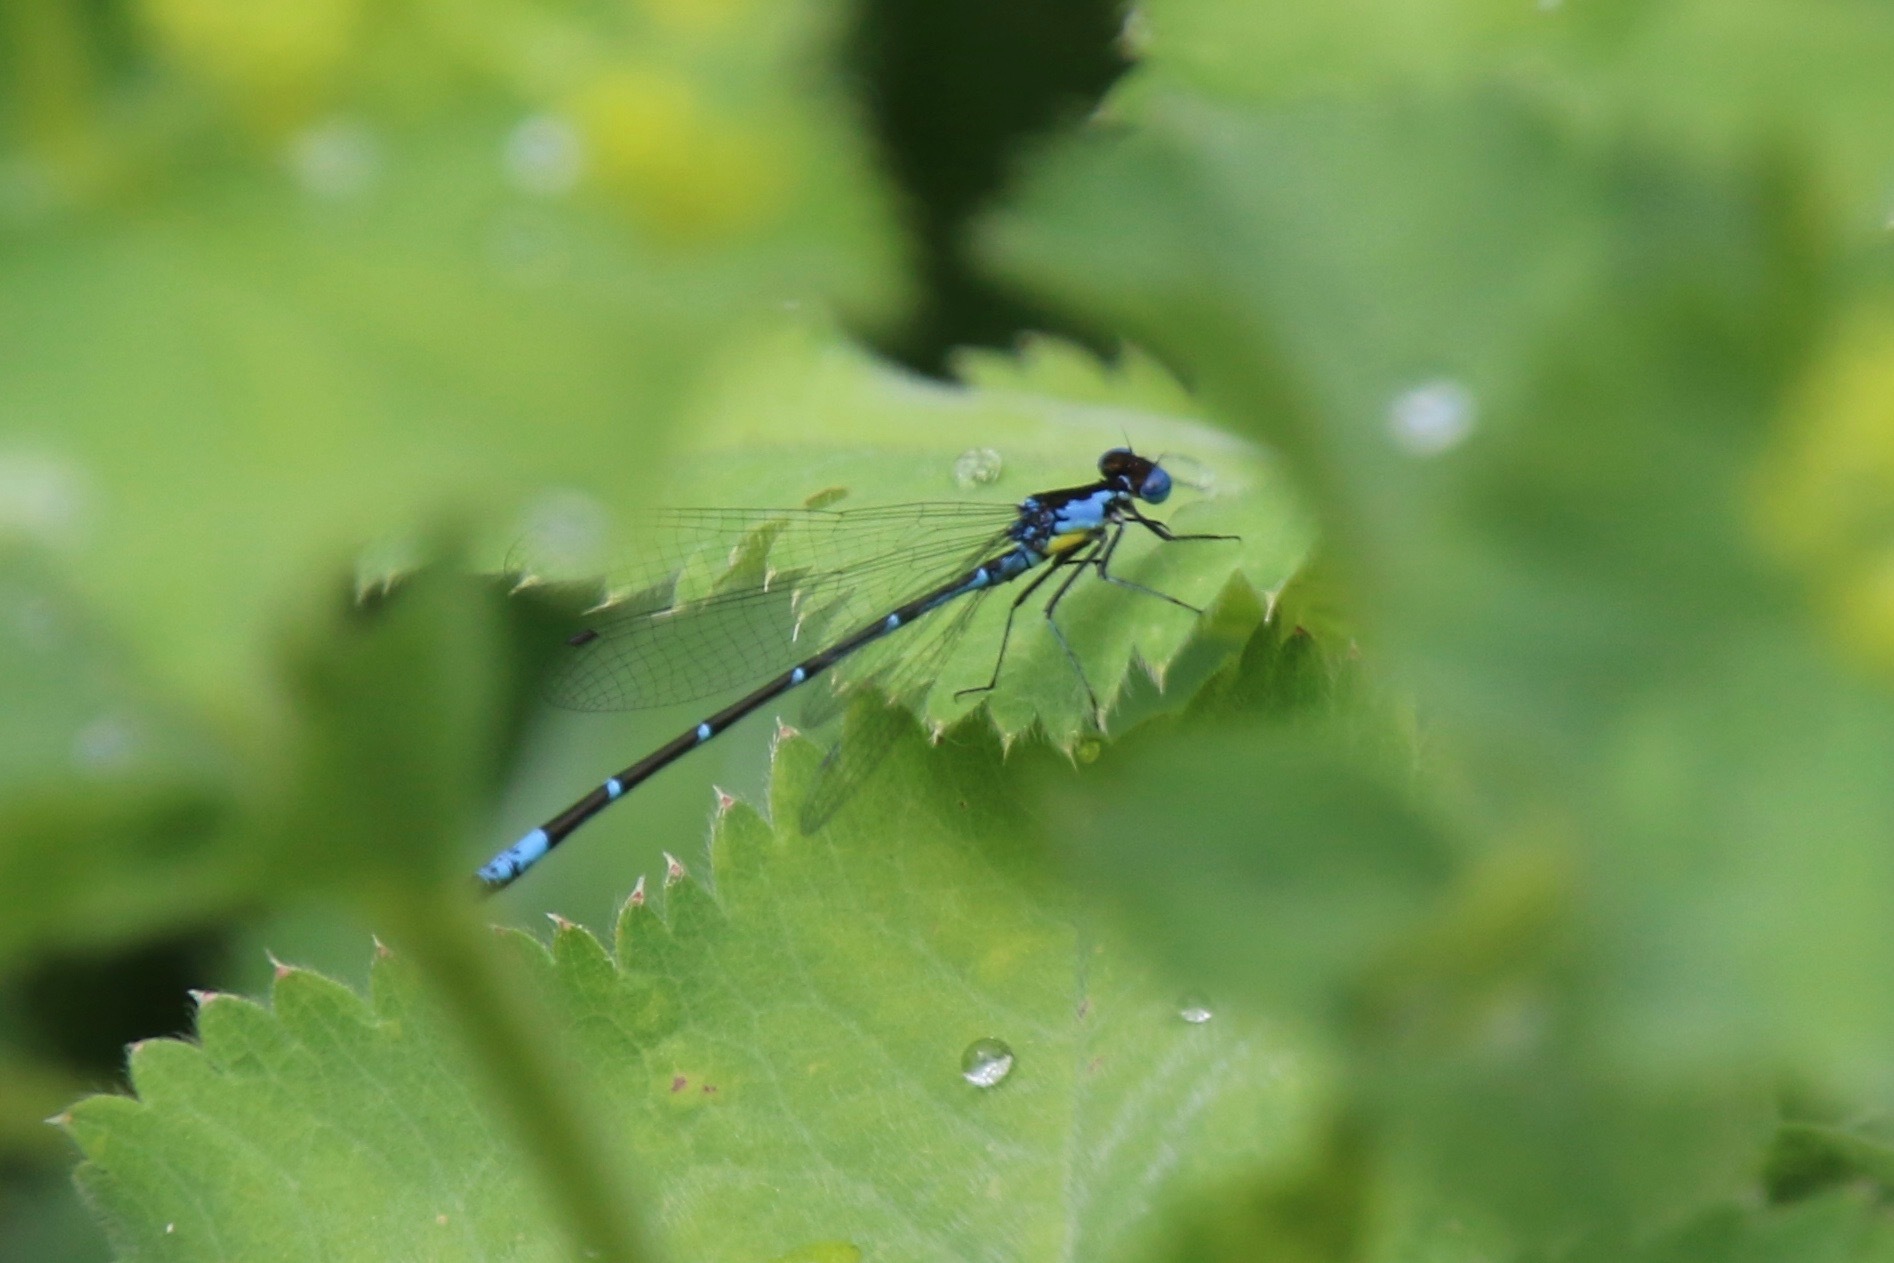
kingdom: Animalia
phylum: Arthropoda
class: Insecta
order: Odonata
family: Coenagrionidae
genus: Chromagrion
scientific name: Chromagrion conditum
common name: Aurora damsel
